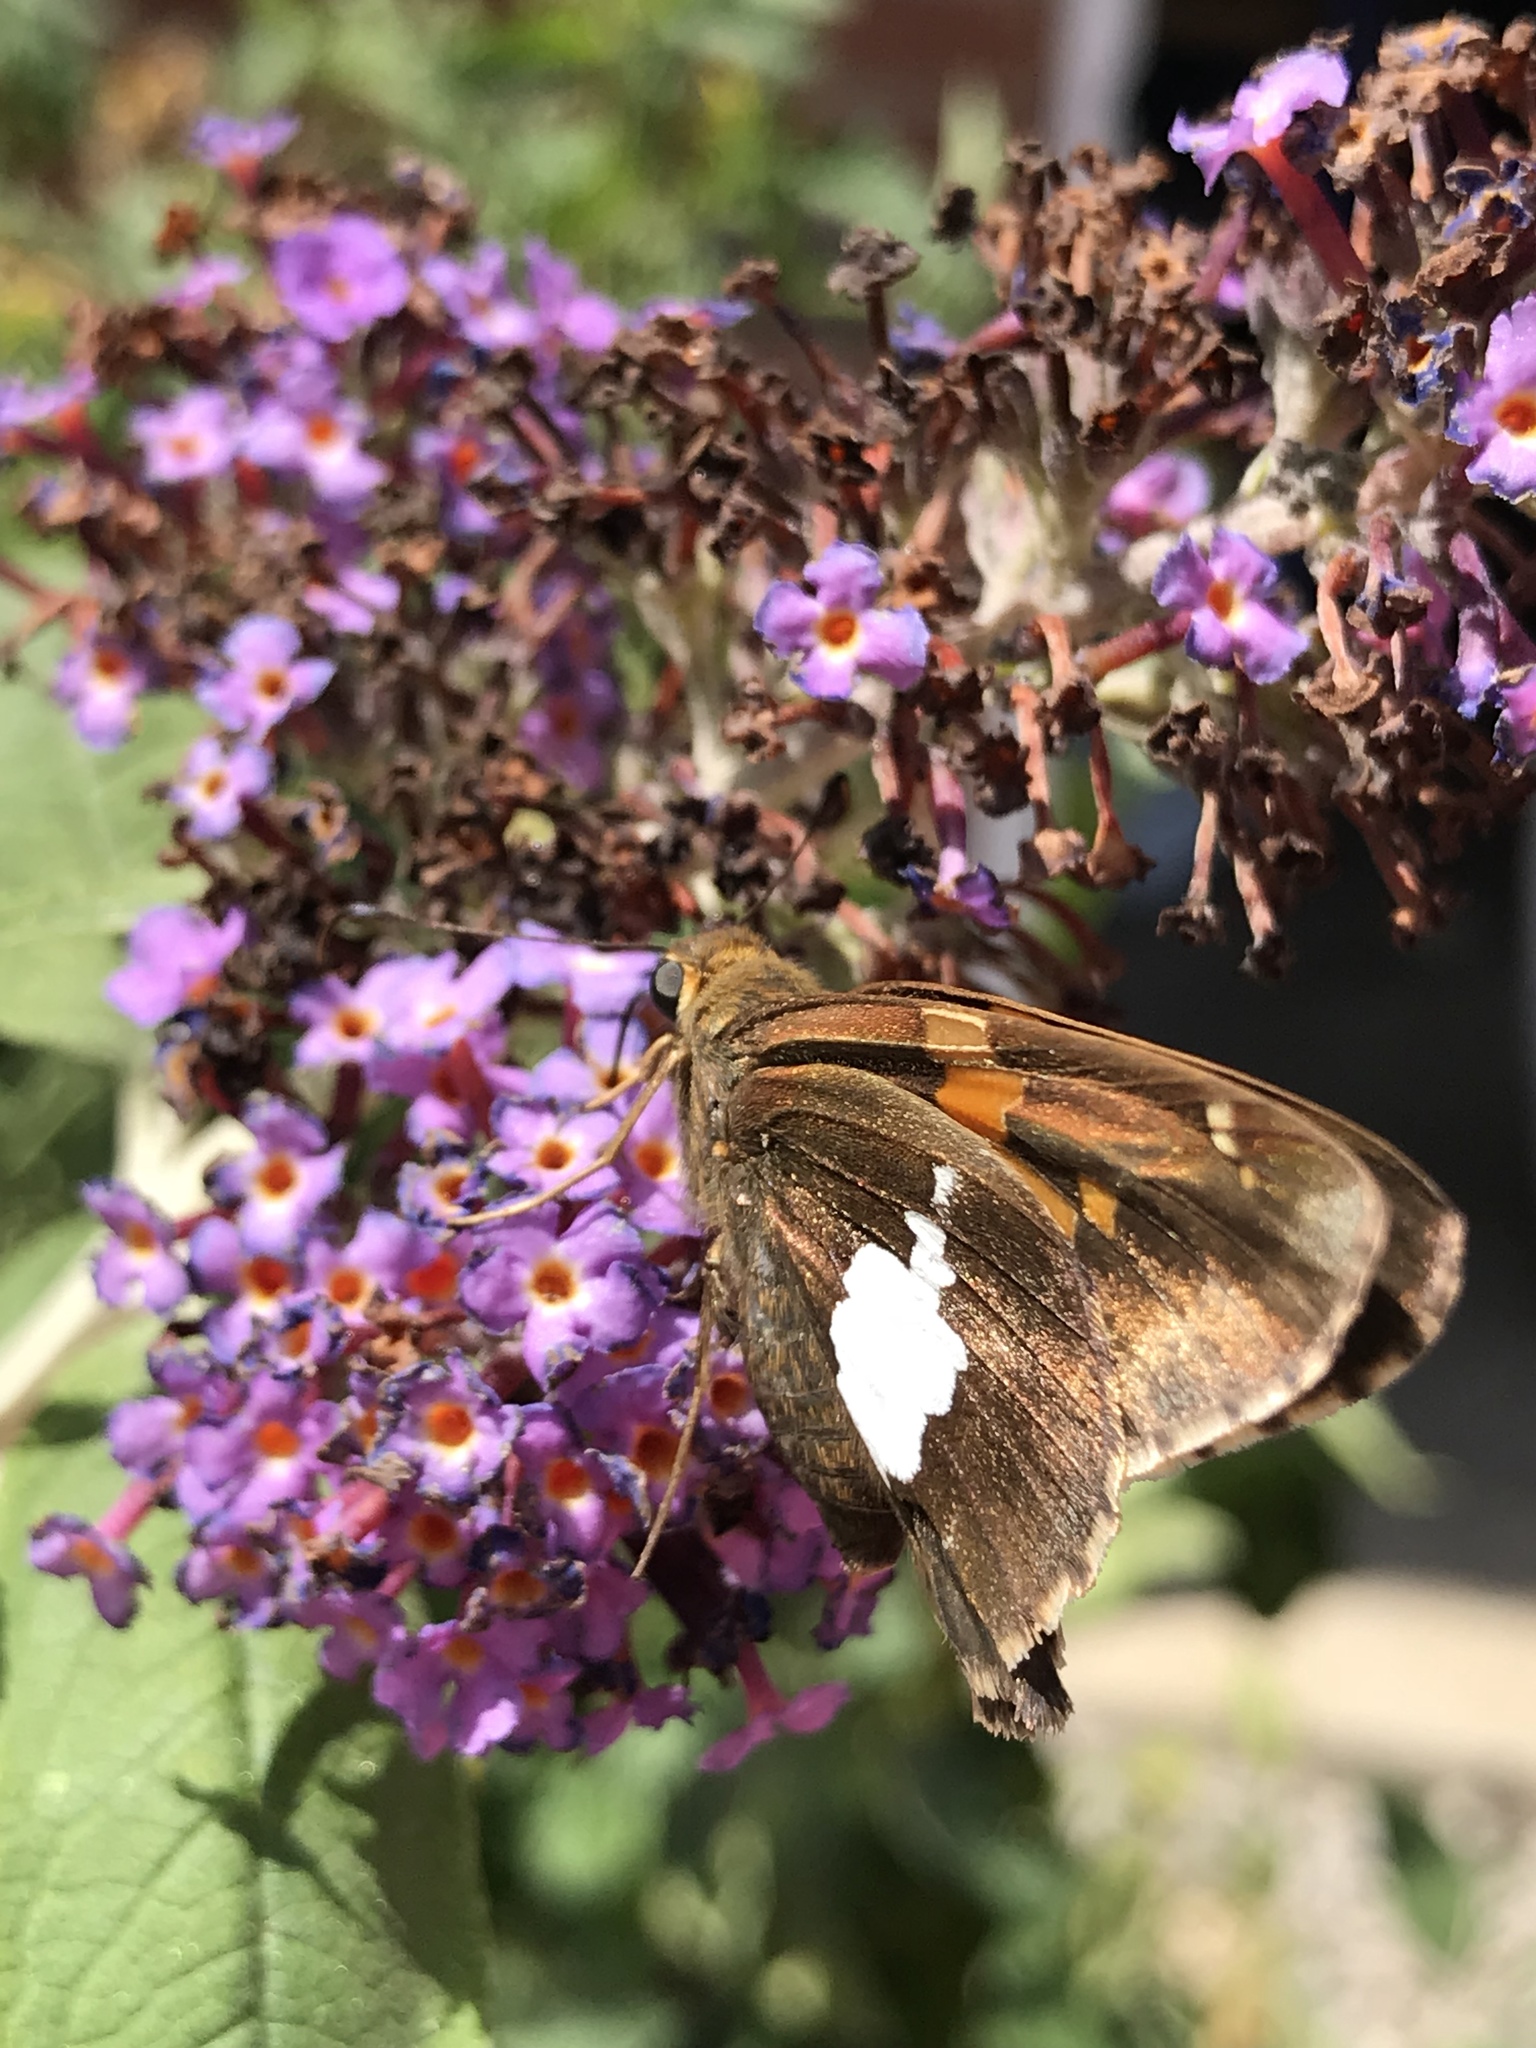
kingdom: Animalia
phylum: Arthropoda
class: Insecta
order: Lepidoptera
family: Hesperiidae
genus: Epargyreus
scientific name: Epargyreus clarus
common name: Silver-spotted skipper
